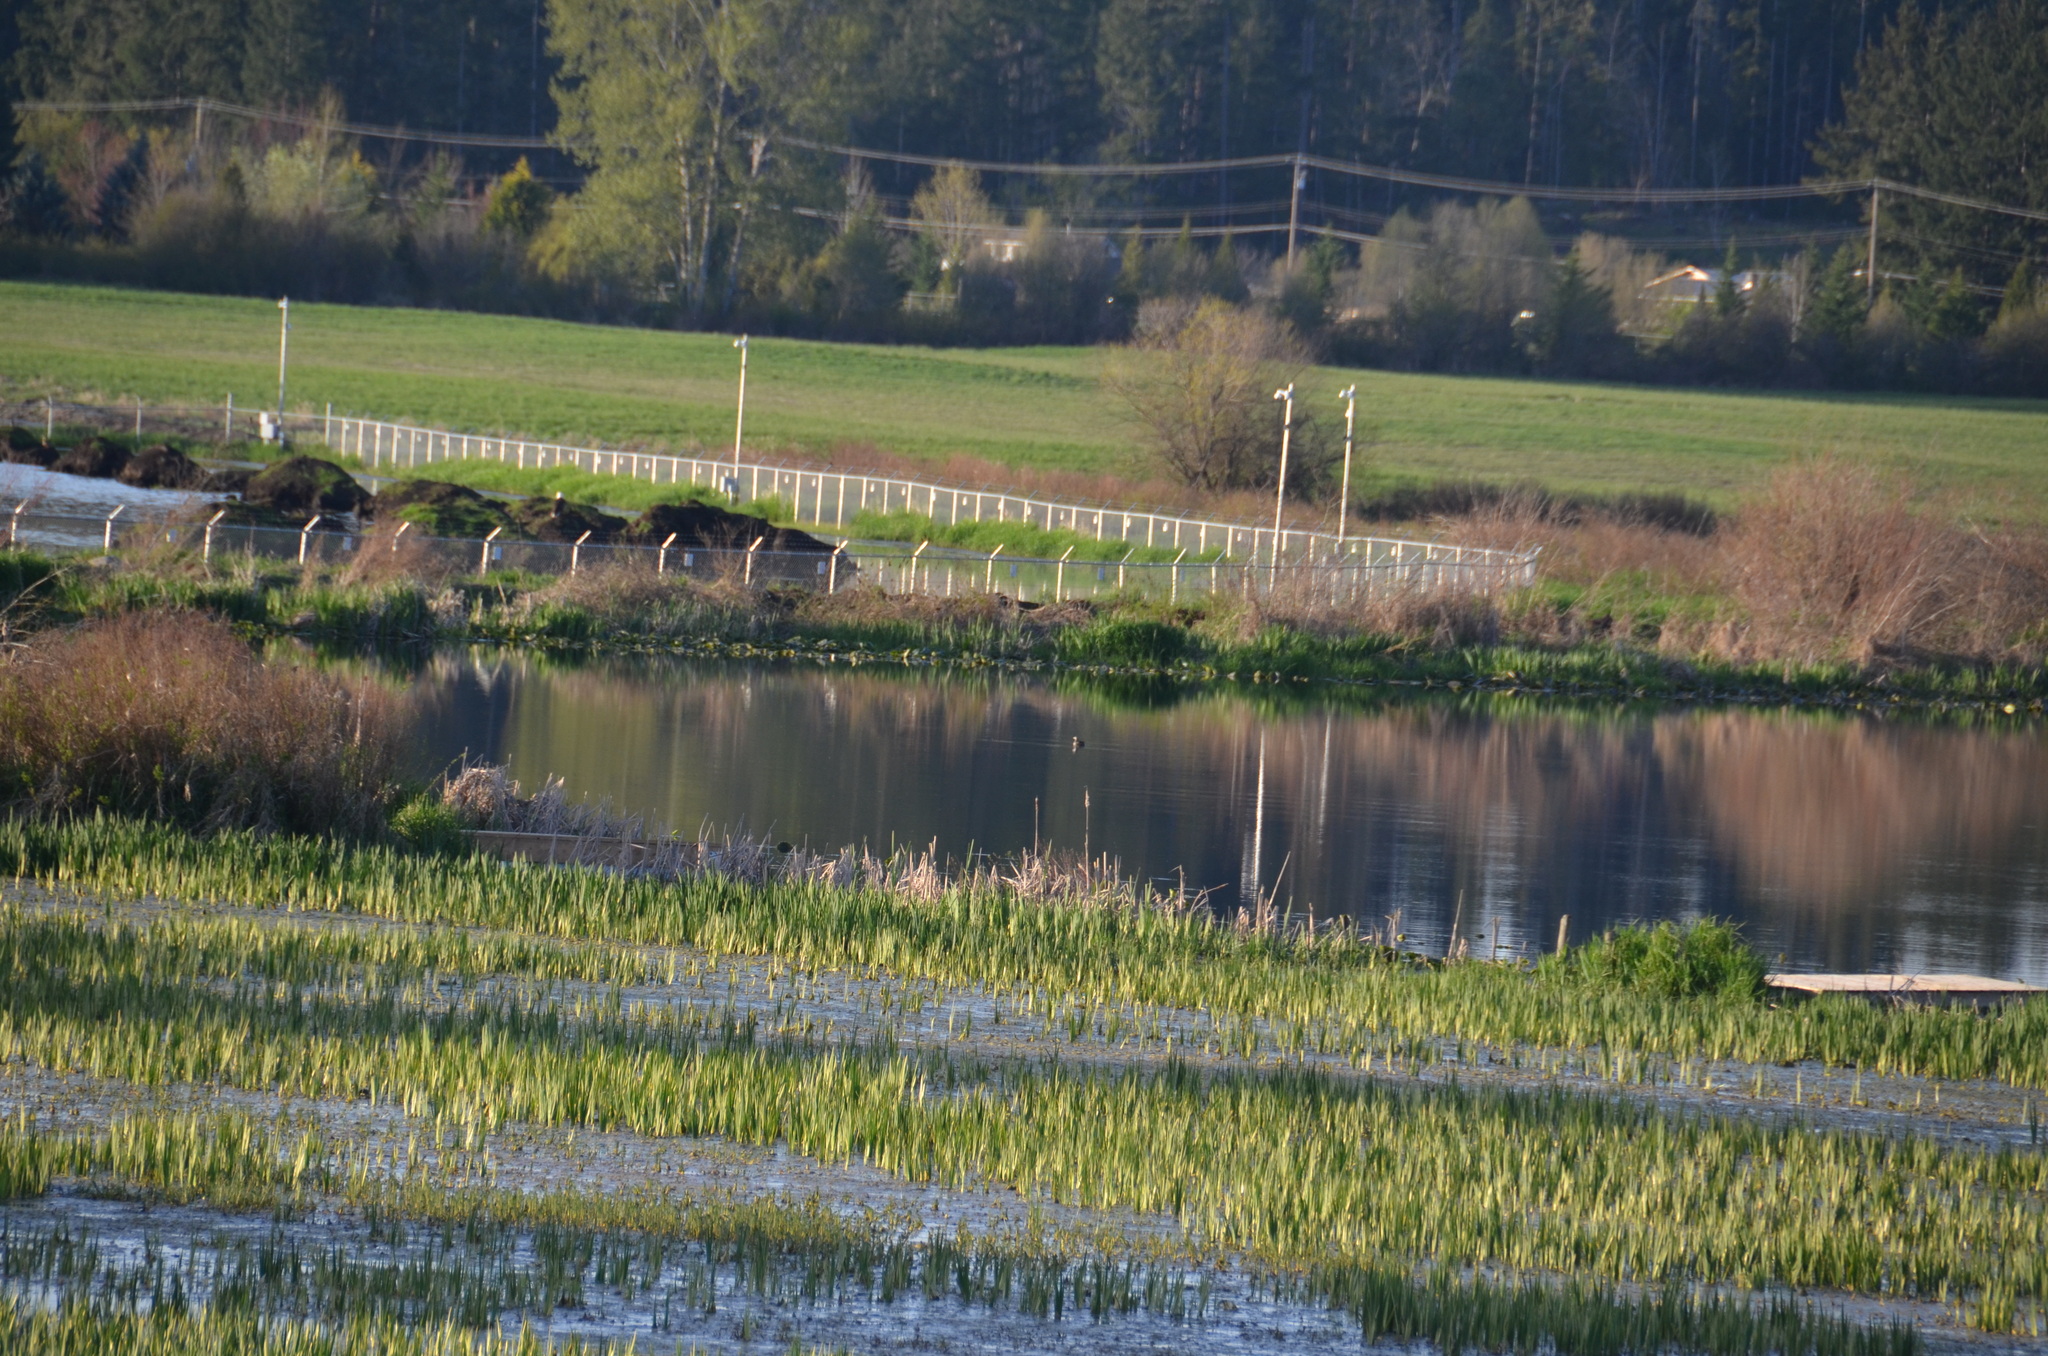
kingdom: Animalia
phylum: Chordata
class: Aves
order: Podicipediformes
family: Podicipedidae
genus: Podilymbus
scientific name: Podilymbus podiceps
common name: Pied-billed grebe
